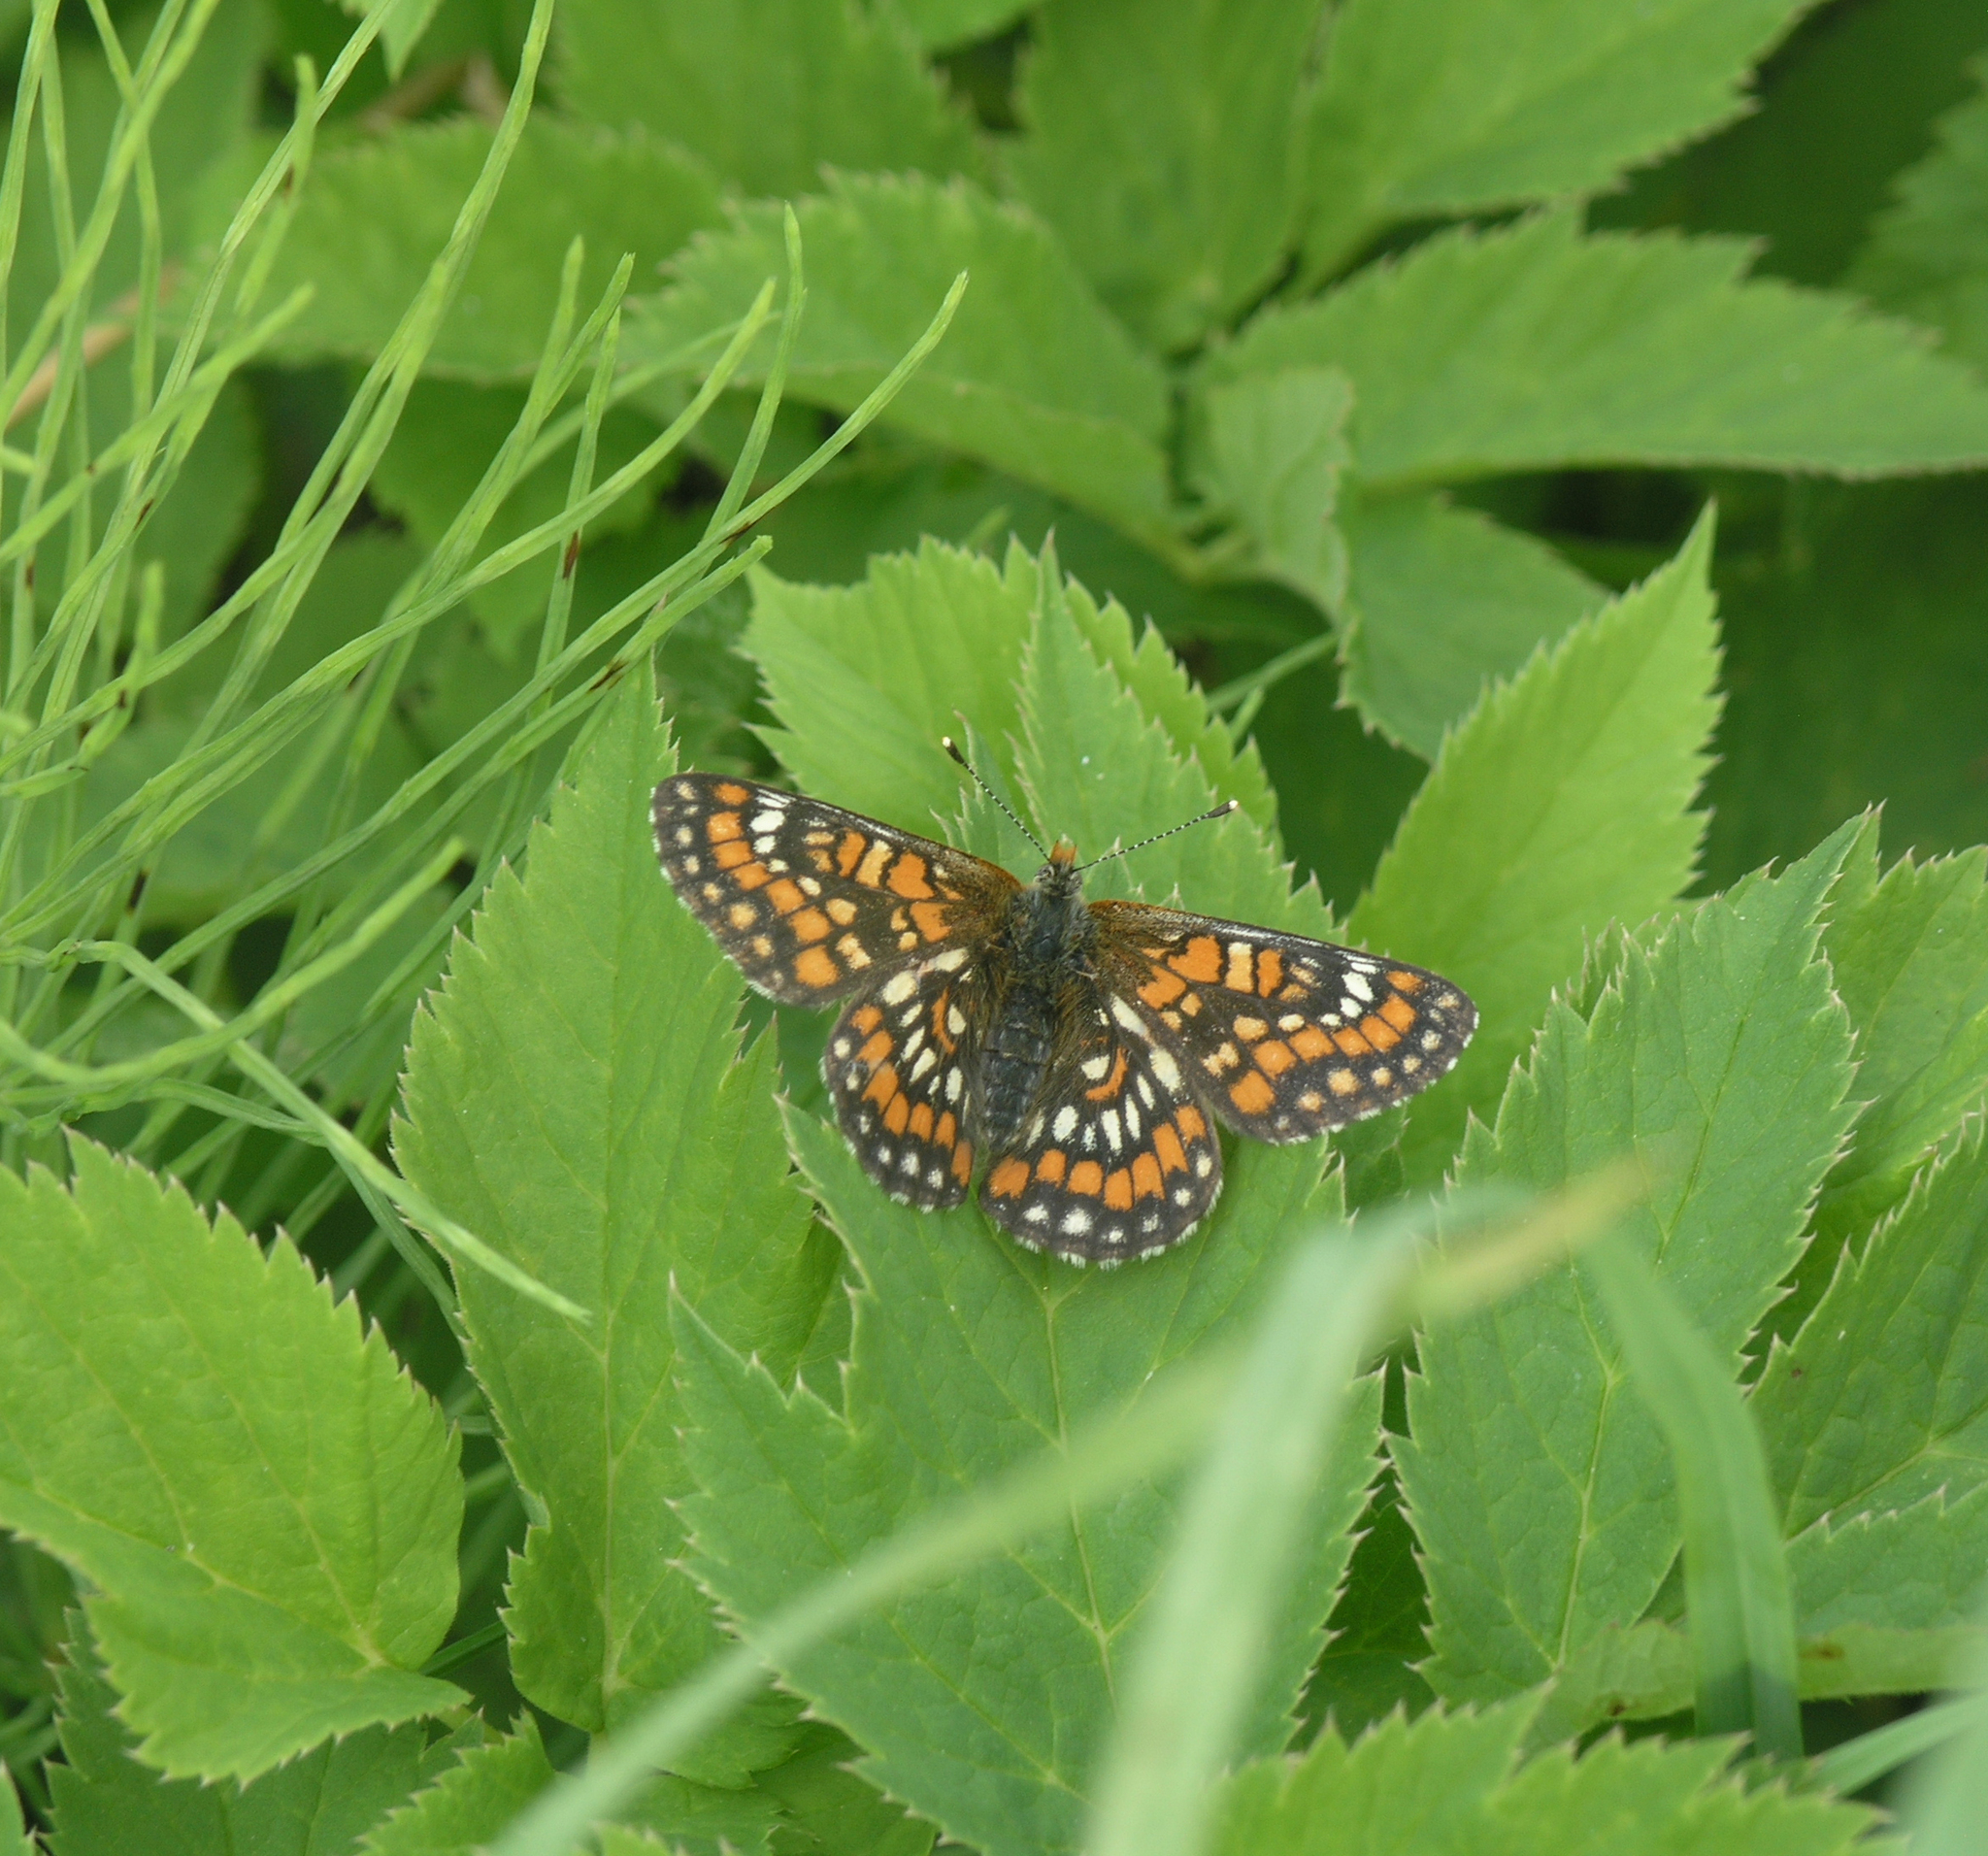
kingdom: Animalia
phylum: Arthropoda
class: Insecta
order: Lepidoptera
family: Nymphalidae
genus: Euphydryas
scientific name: Euphydryas maturna
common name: Scarce fritillary
